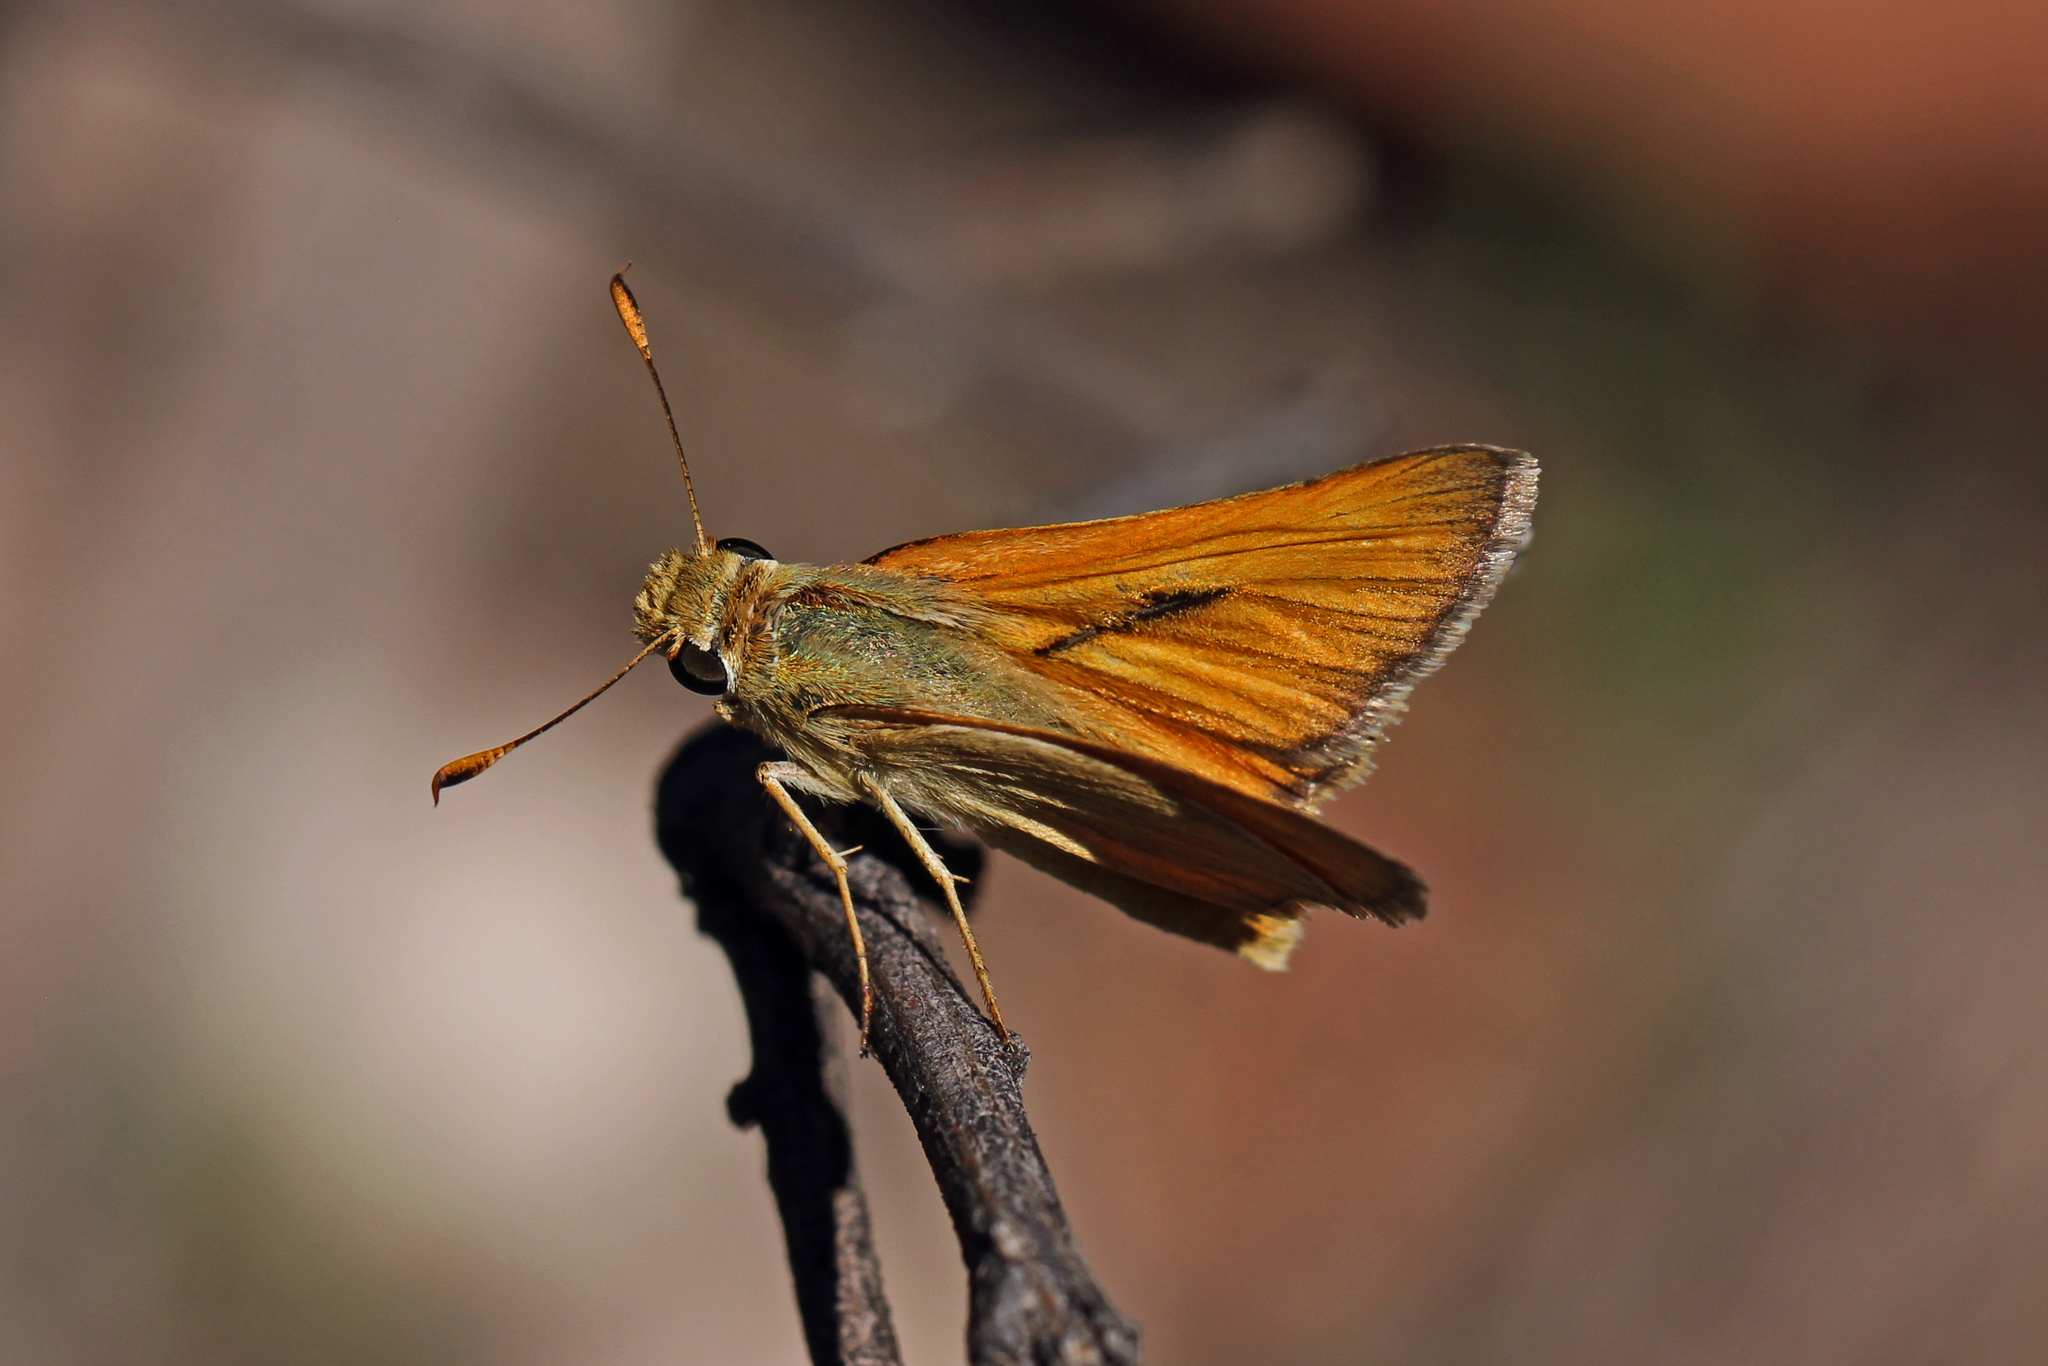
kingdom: Animalia
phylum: Arthropoda
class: Insecta
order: Lepidoptera
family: Hesperiidae
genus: Ochlodes
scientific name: Ochlodes sylvanoides
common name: Woodland skipper
